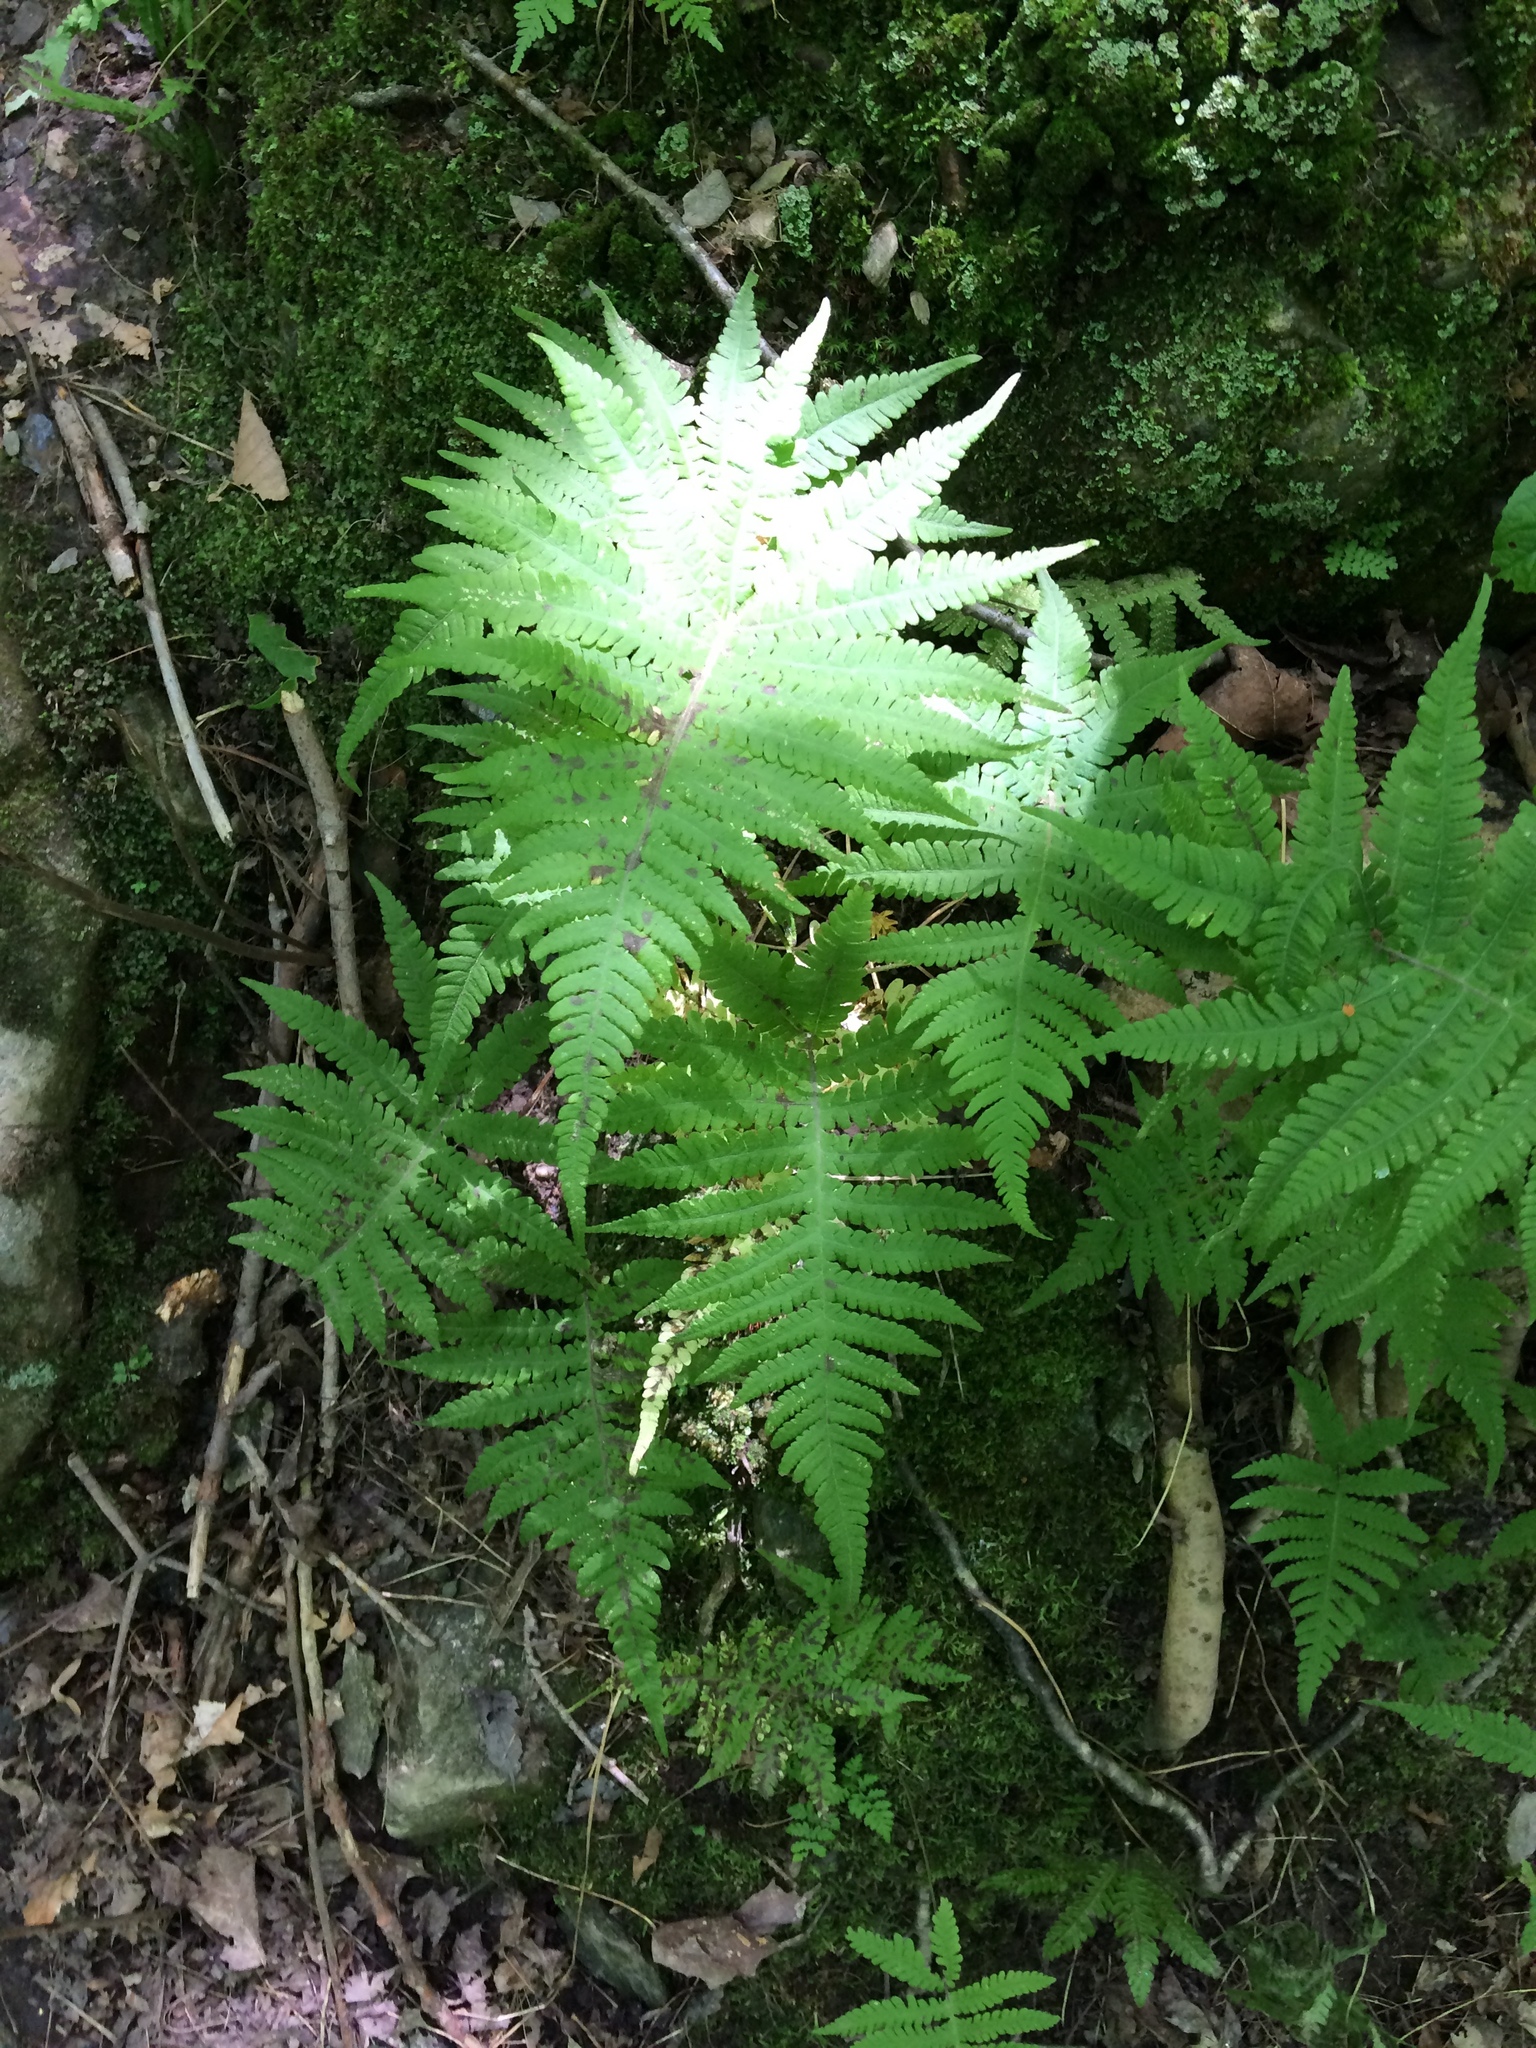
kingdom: Plantae
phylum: Tracheophyta
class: Polypodiopsida
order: Polypodiales
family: Thelypteridaceae
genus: Phegopteris
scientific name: Phegopteris connectilis
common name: Beech fern
